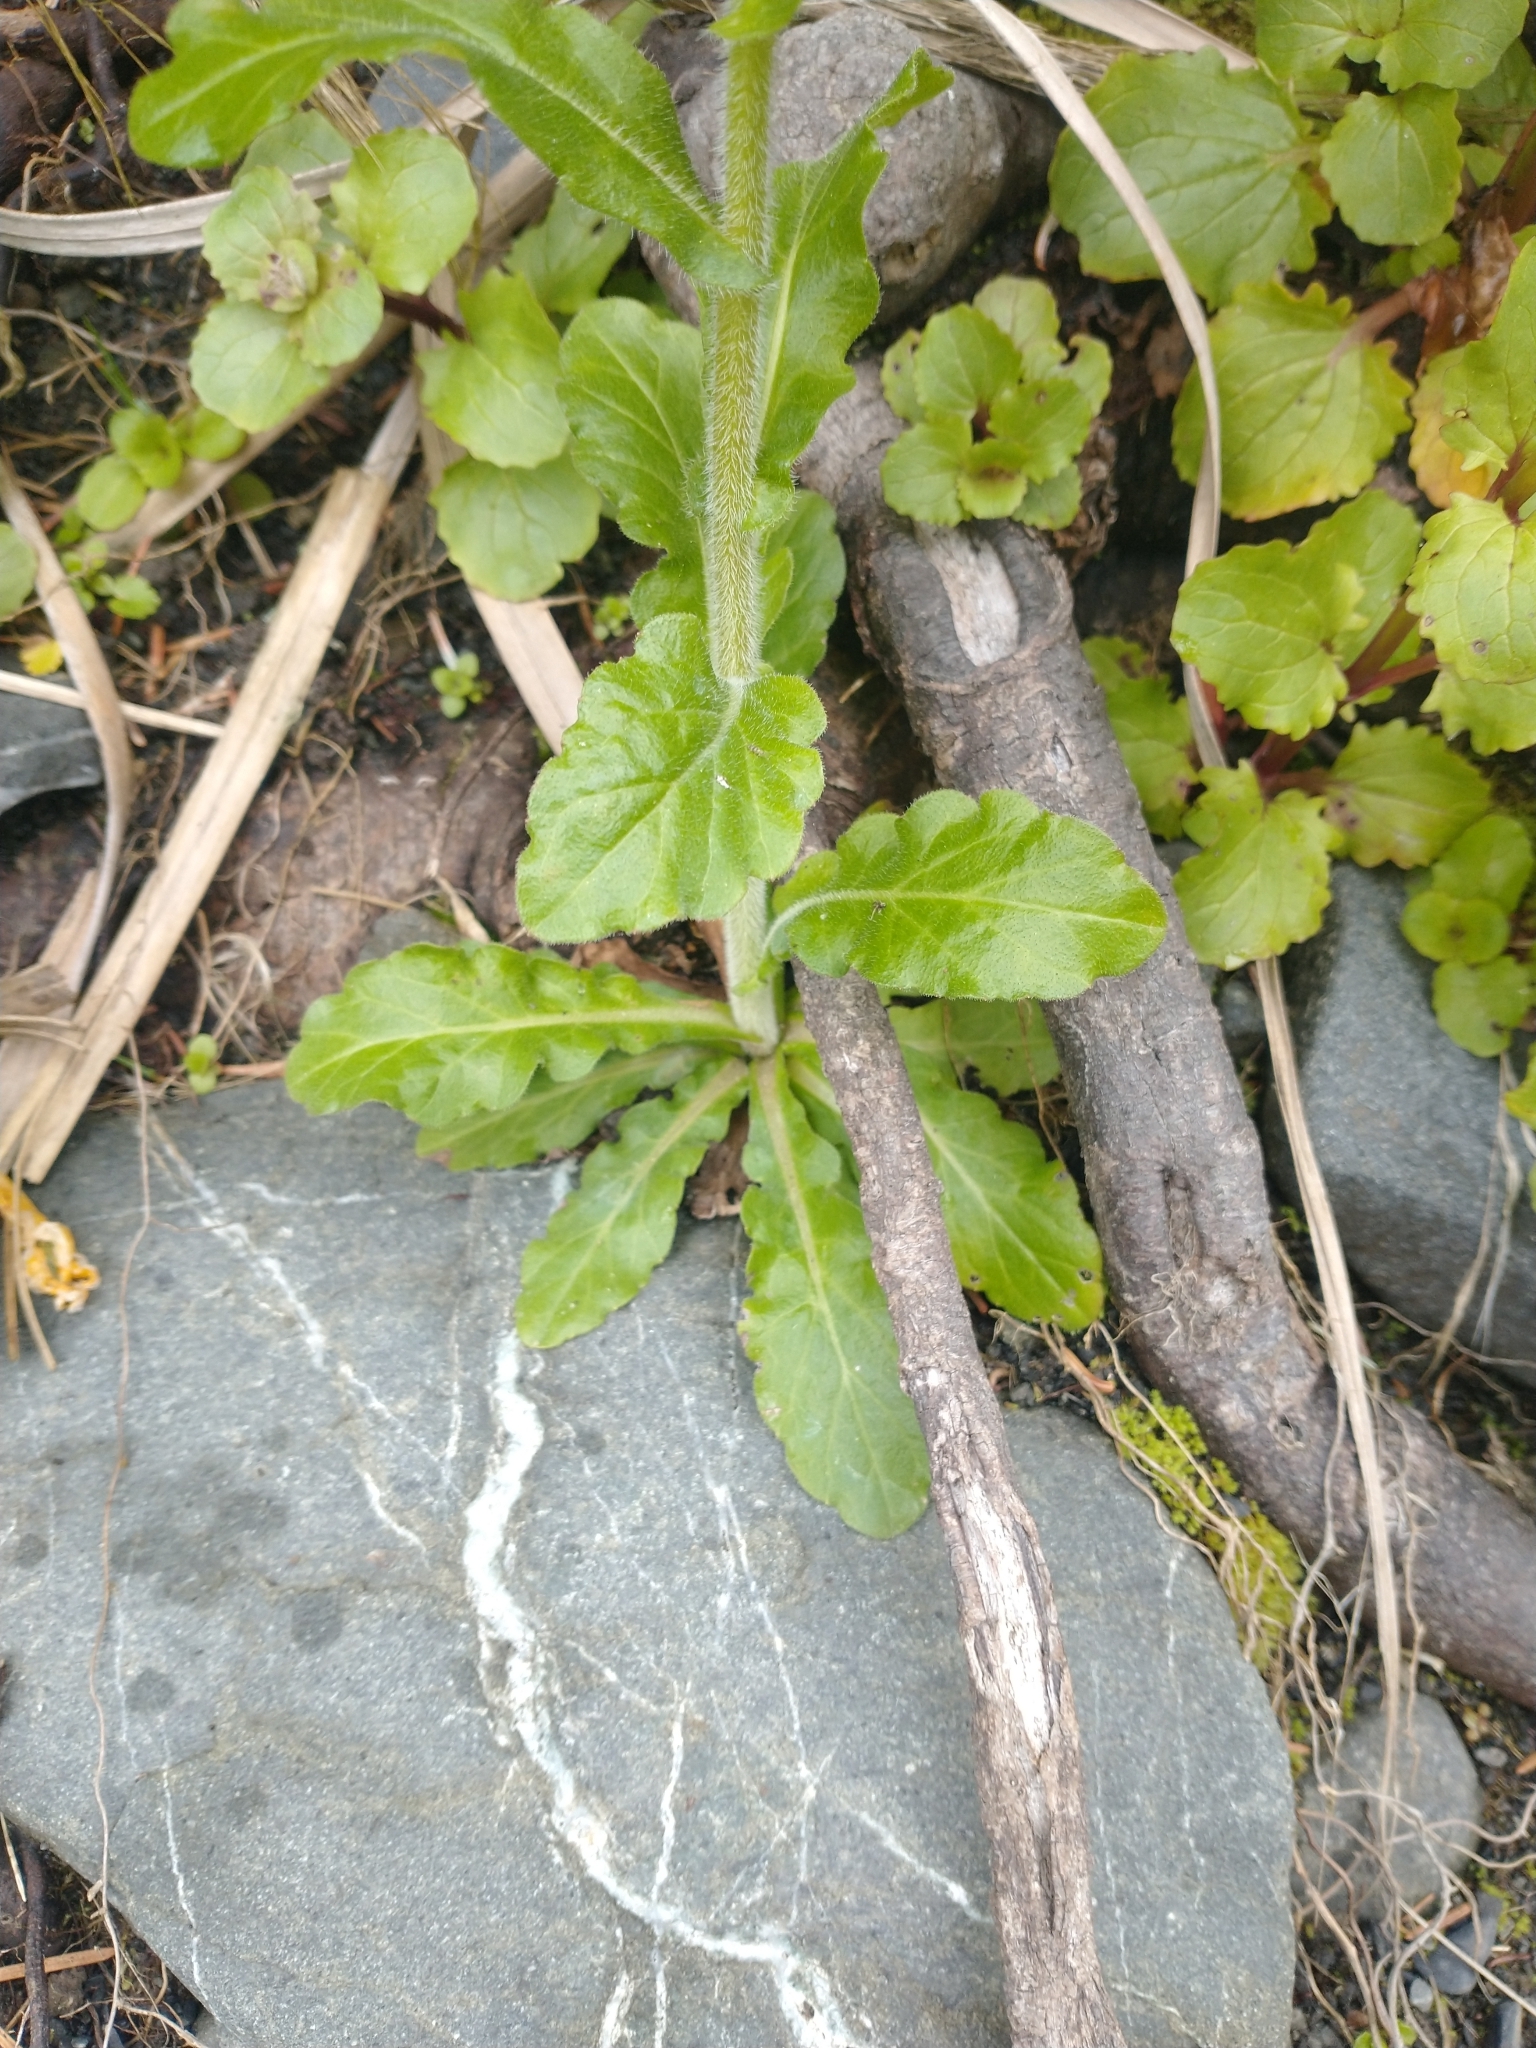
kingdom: Plantae
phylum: Tracheophyta
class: Magnoliopsida
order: Asterales
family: Asteraceae
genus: Erigeron
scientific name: Erigeron philadelphicus
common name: Robin's-plantain
